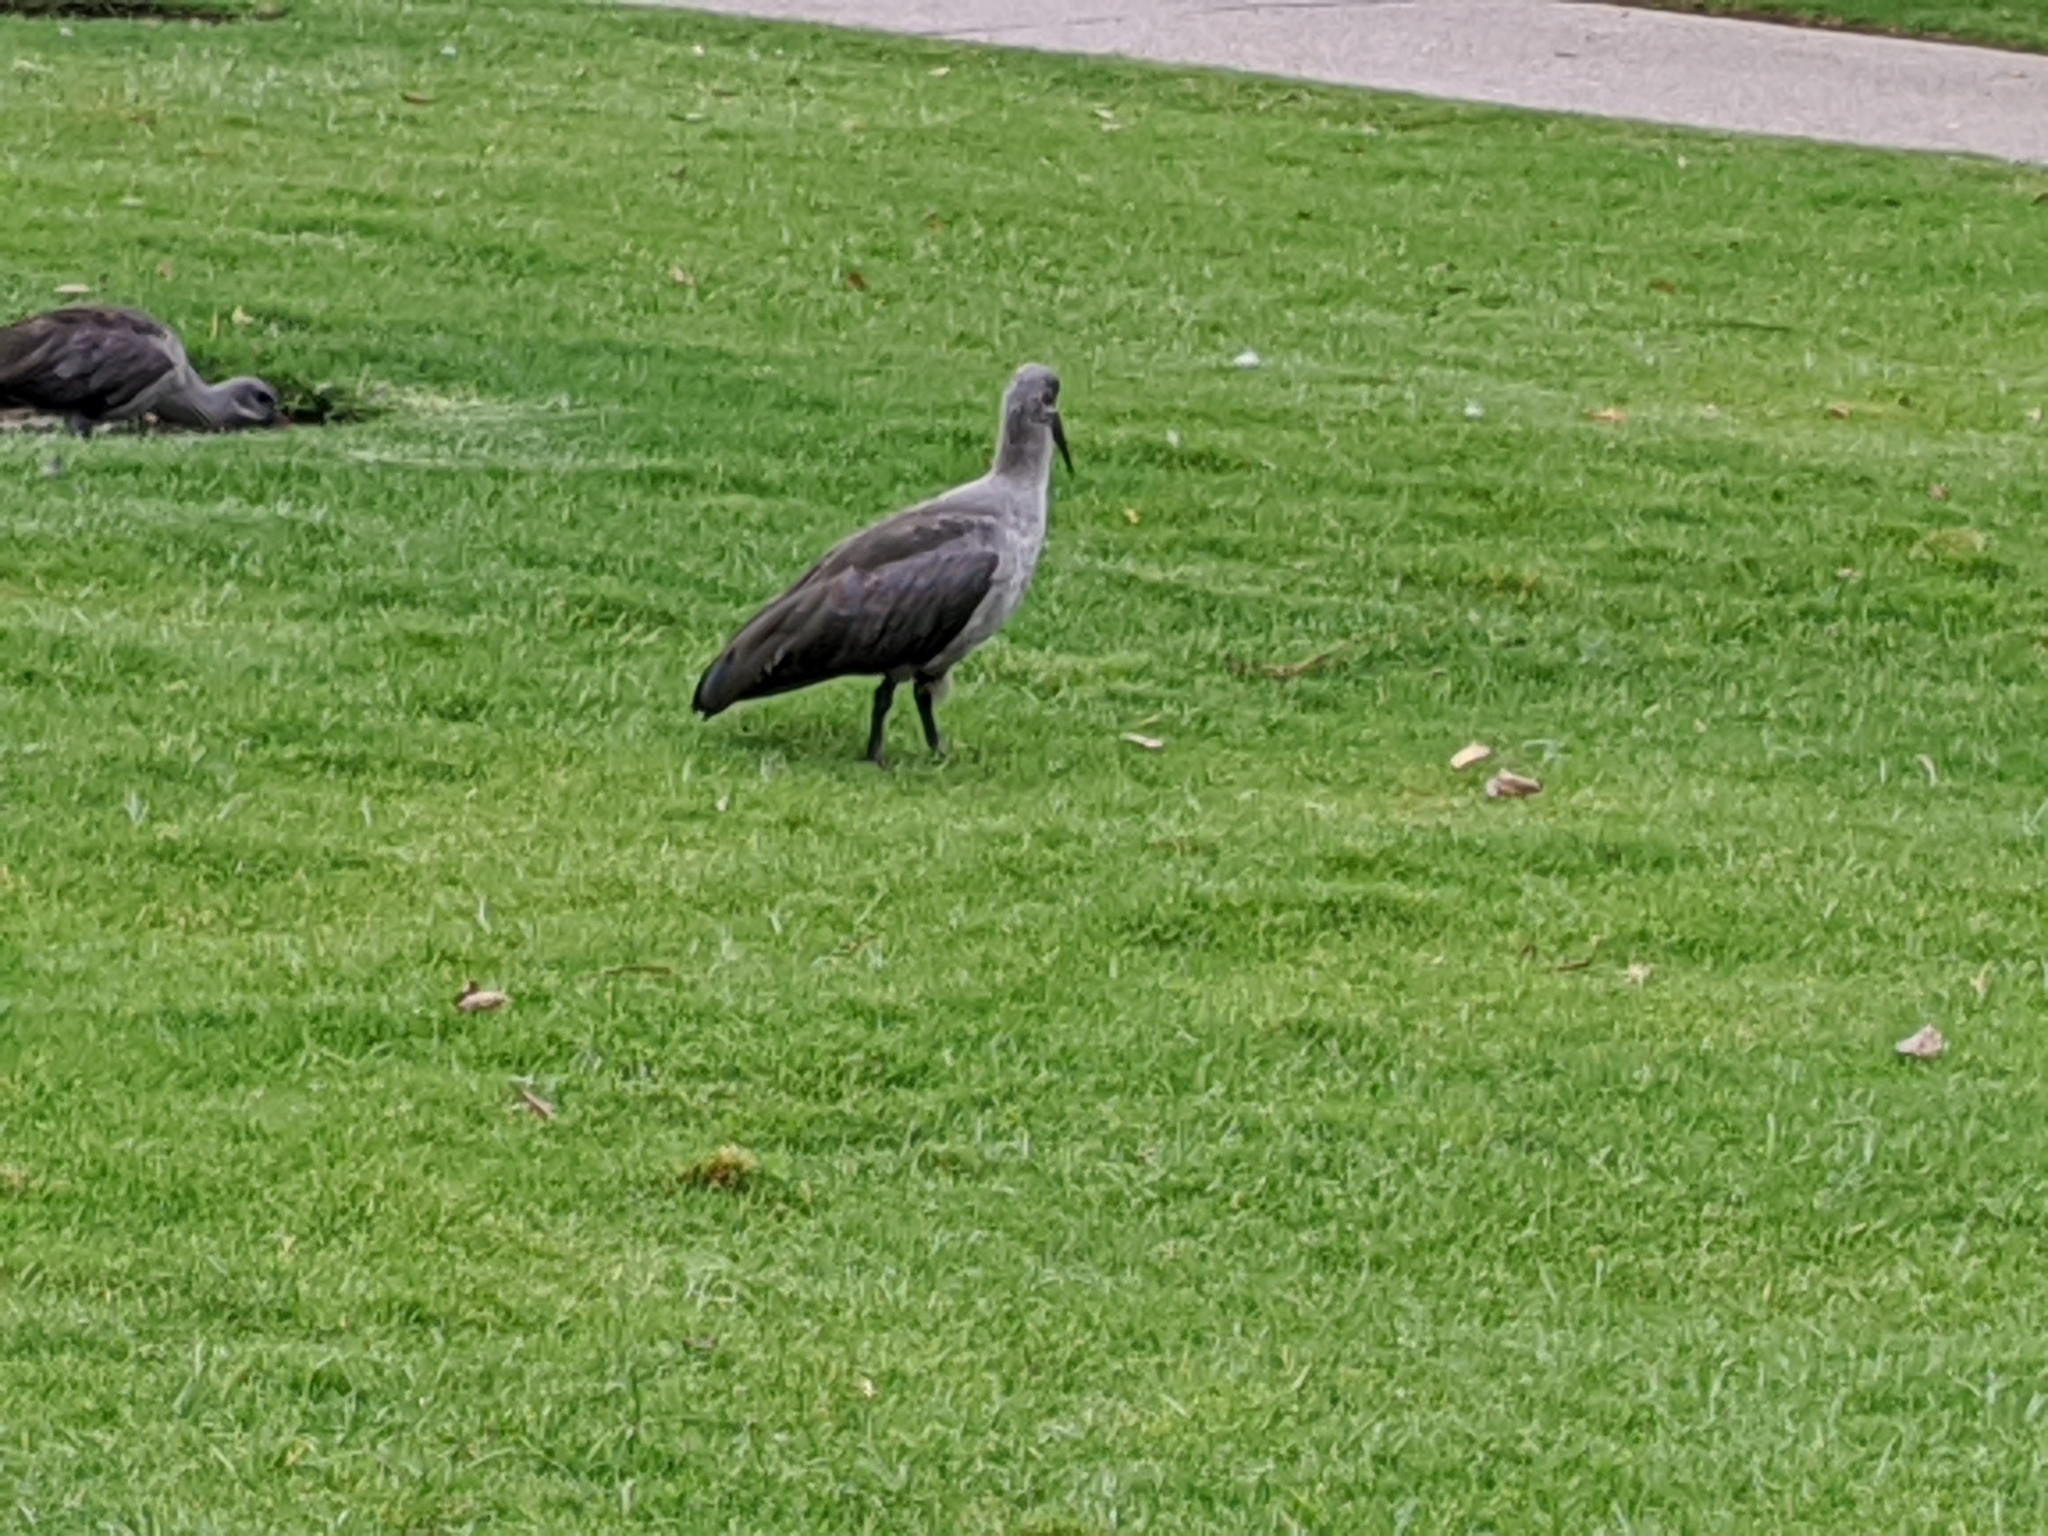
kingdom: Animalia
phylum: Chordata
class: Aves
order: Pelecaniformes
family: Threskiornithidae
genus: Bostrychia
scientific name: Bostrychia hagedash
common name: Hadada ibis
